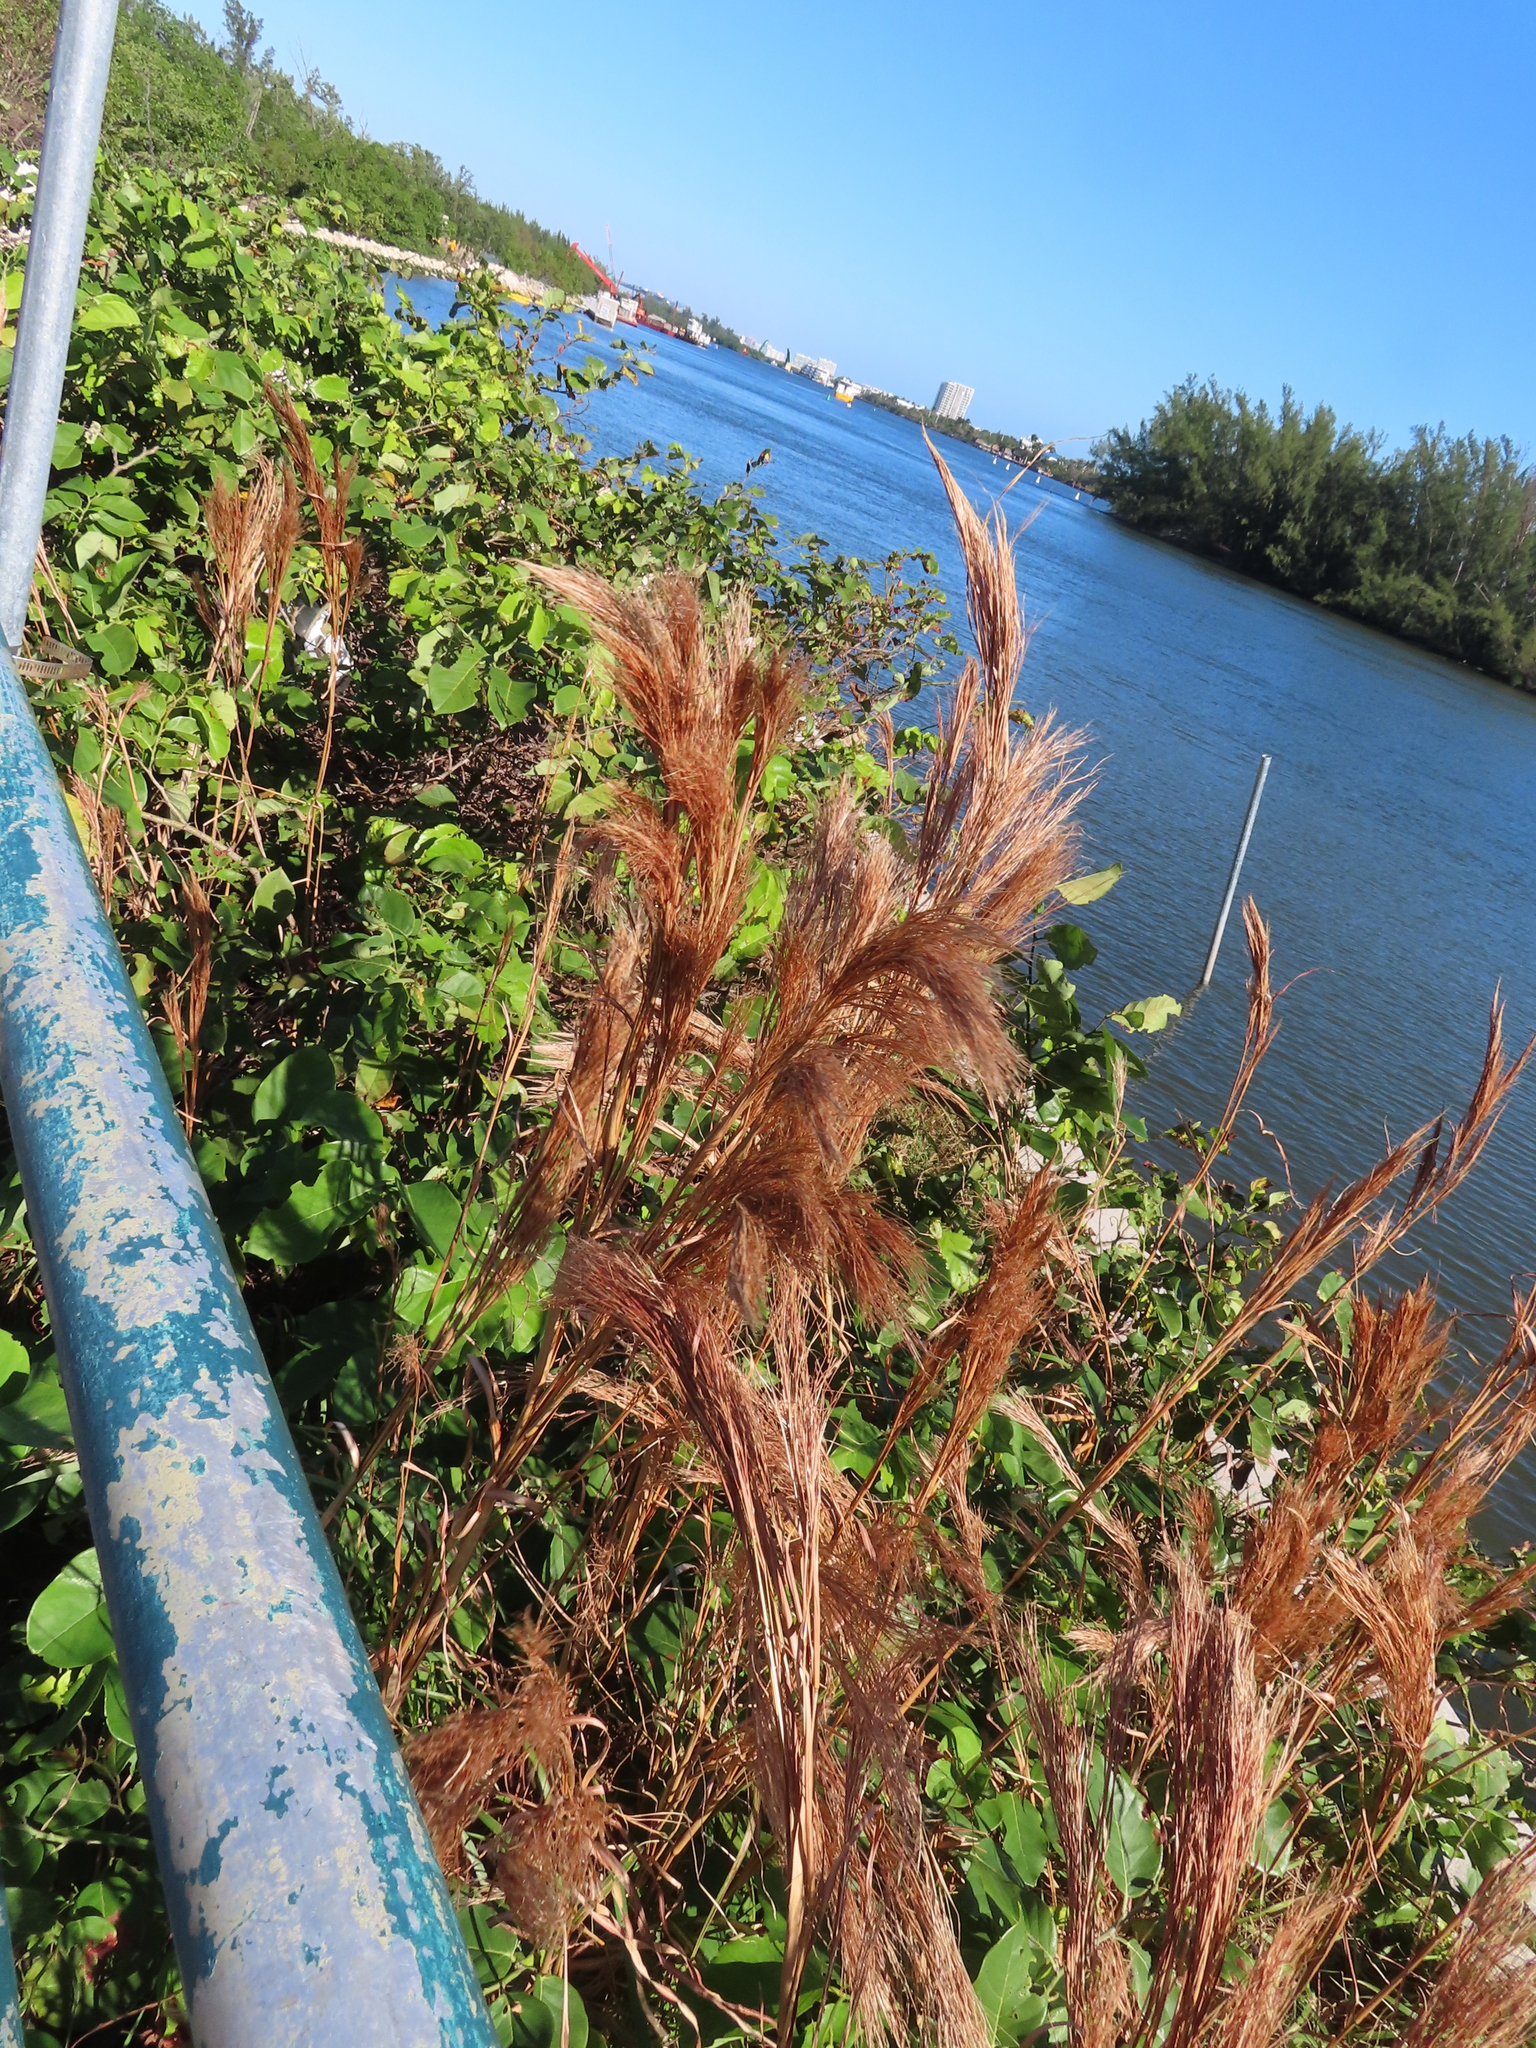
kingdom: Plantae
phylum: Tracheophyta
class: Liliopsida
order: Poales
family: Poaceae
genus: Andropogon
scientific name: Andropogon tenuispatheus
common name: Bushy bluestem
